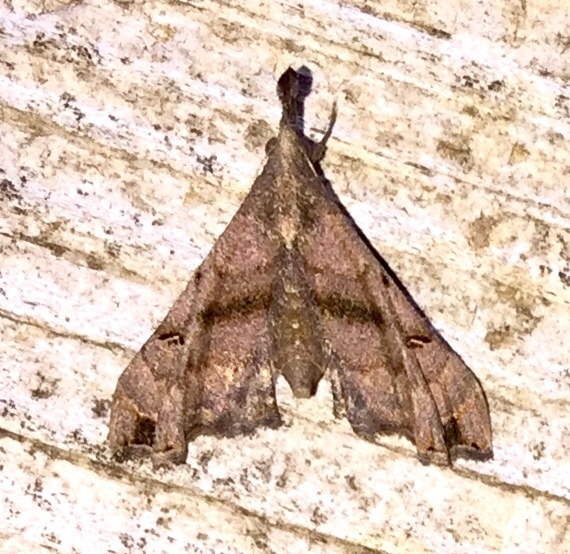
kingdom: Animalia
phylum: Arthropoda
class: Insecta
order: Lepidoptera
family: Erebidae
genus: Palthis
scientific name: Palthis asopialis
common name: Faint-spotted palthis moth
